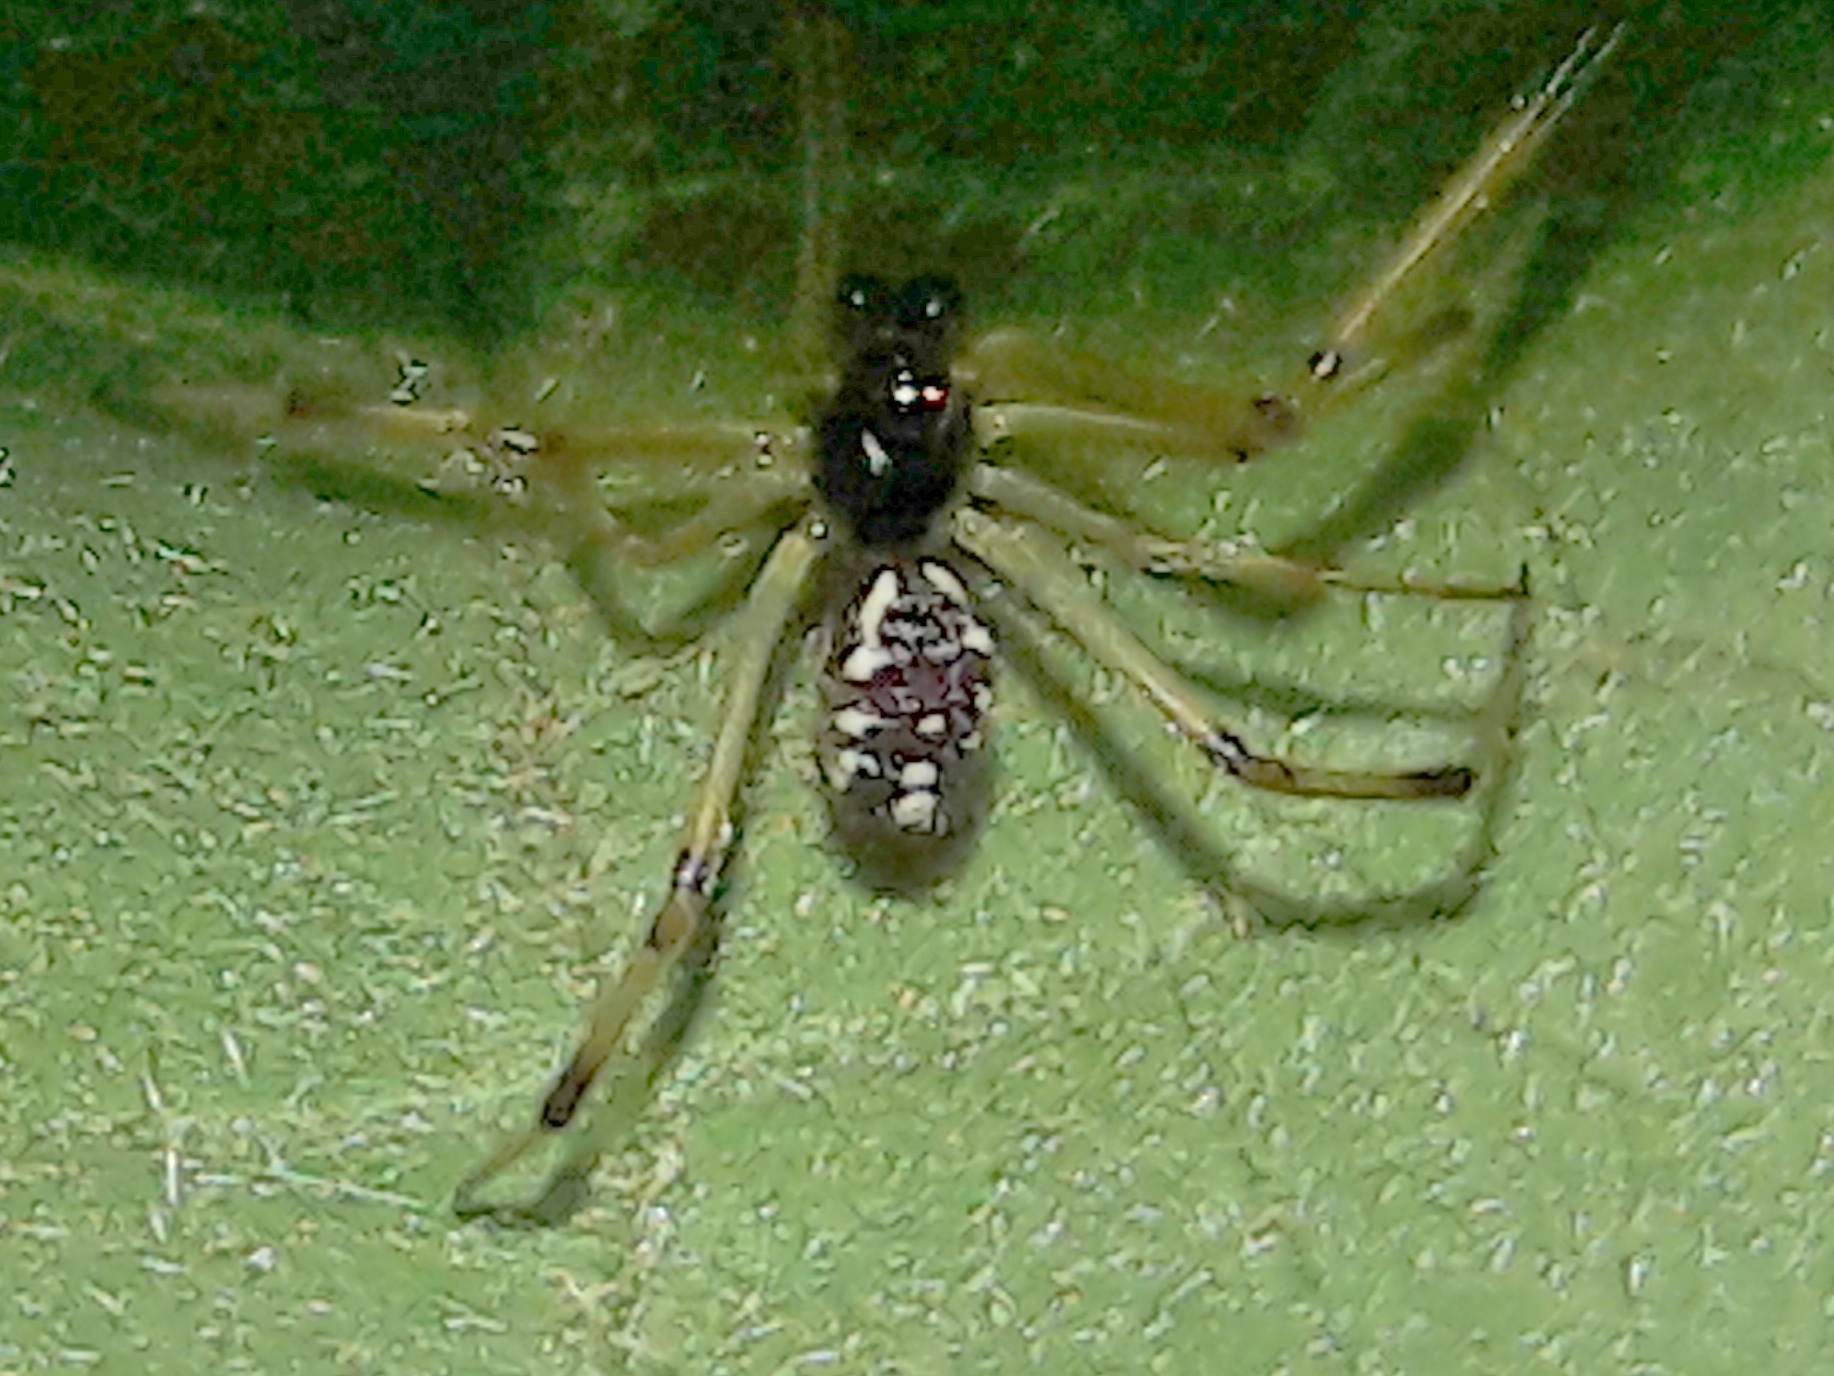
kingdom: Animalia
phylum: Arthropoda
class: Arachnida
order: Araneae
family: Theridiidae
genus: Latrodectus
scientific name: Latrodectus geometricus
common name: Brown widow spider
